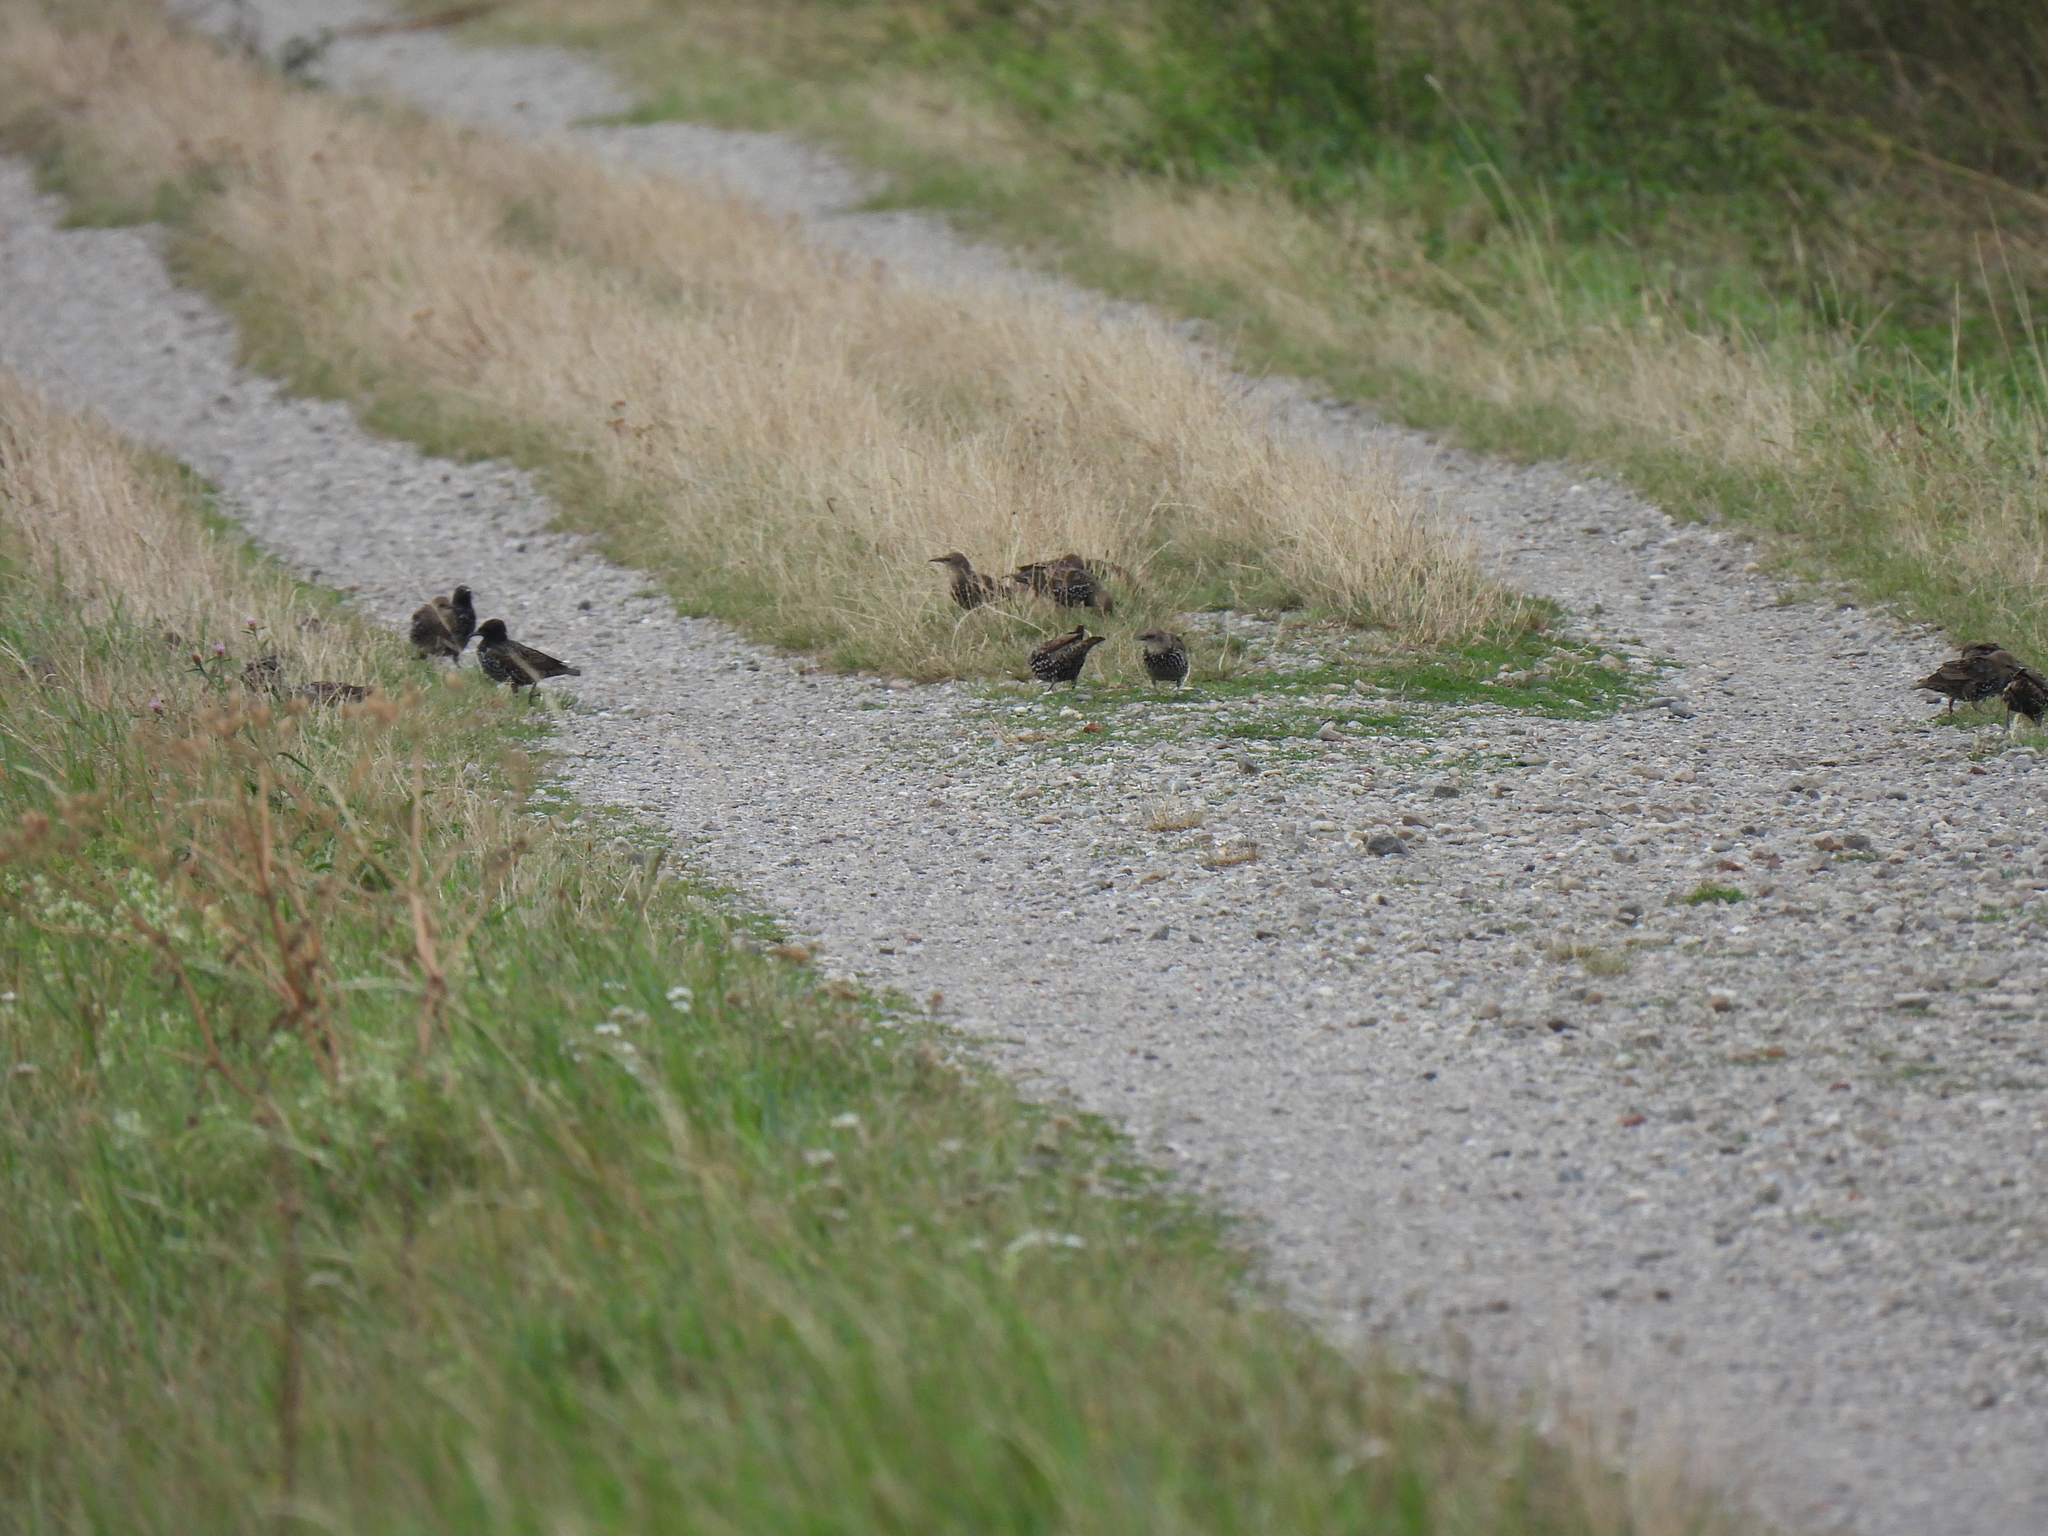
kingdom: Animalia
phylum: Chordata
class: Aves
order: Passeriformes
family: Sturnidae
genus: Sturnus
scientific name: Sturnus vulgaris
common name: Common starling
